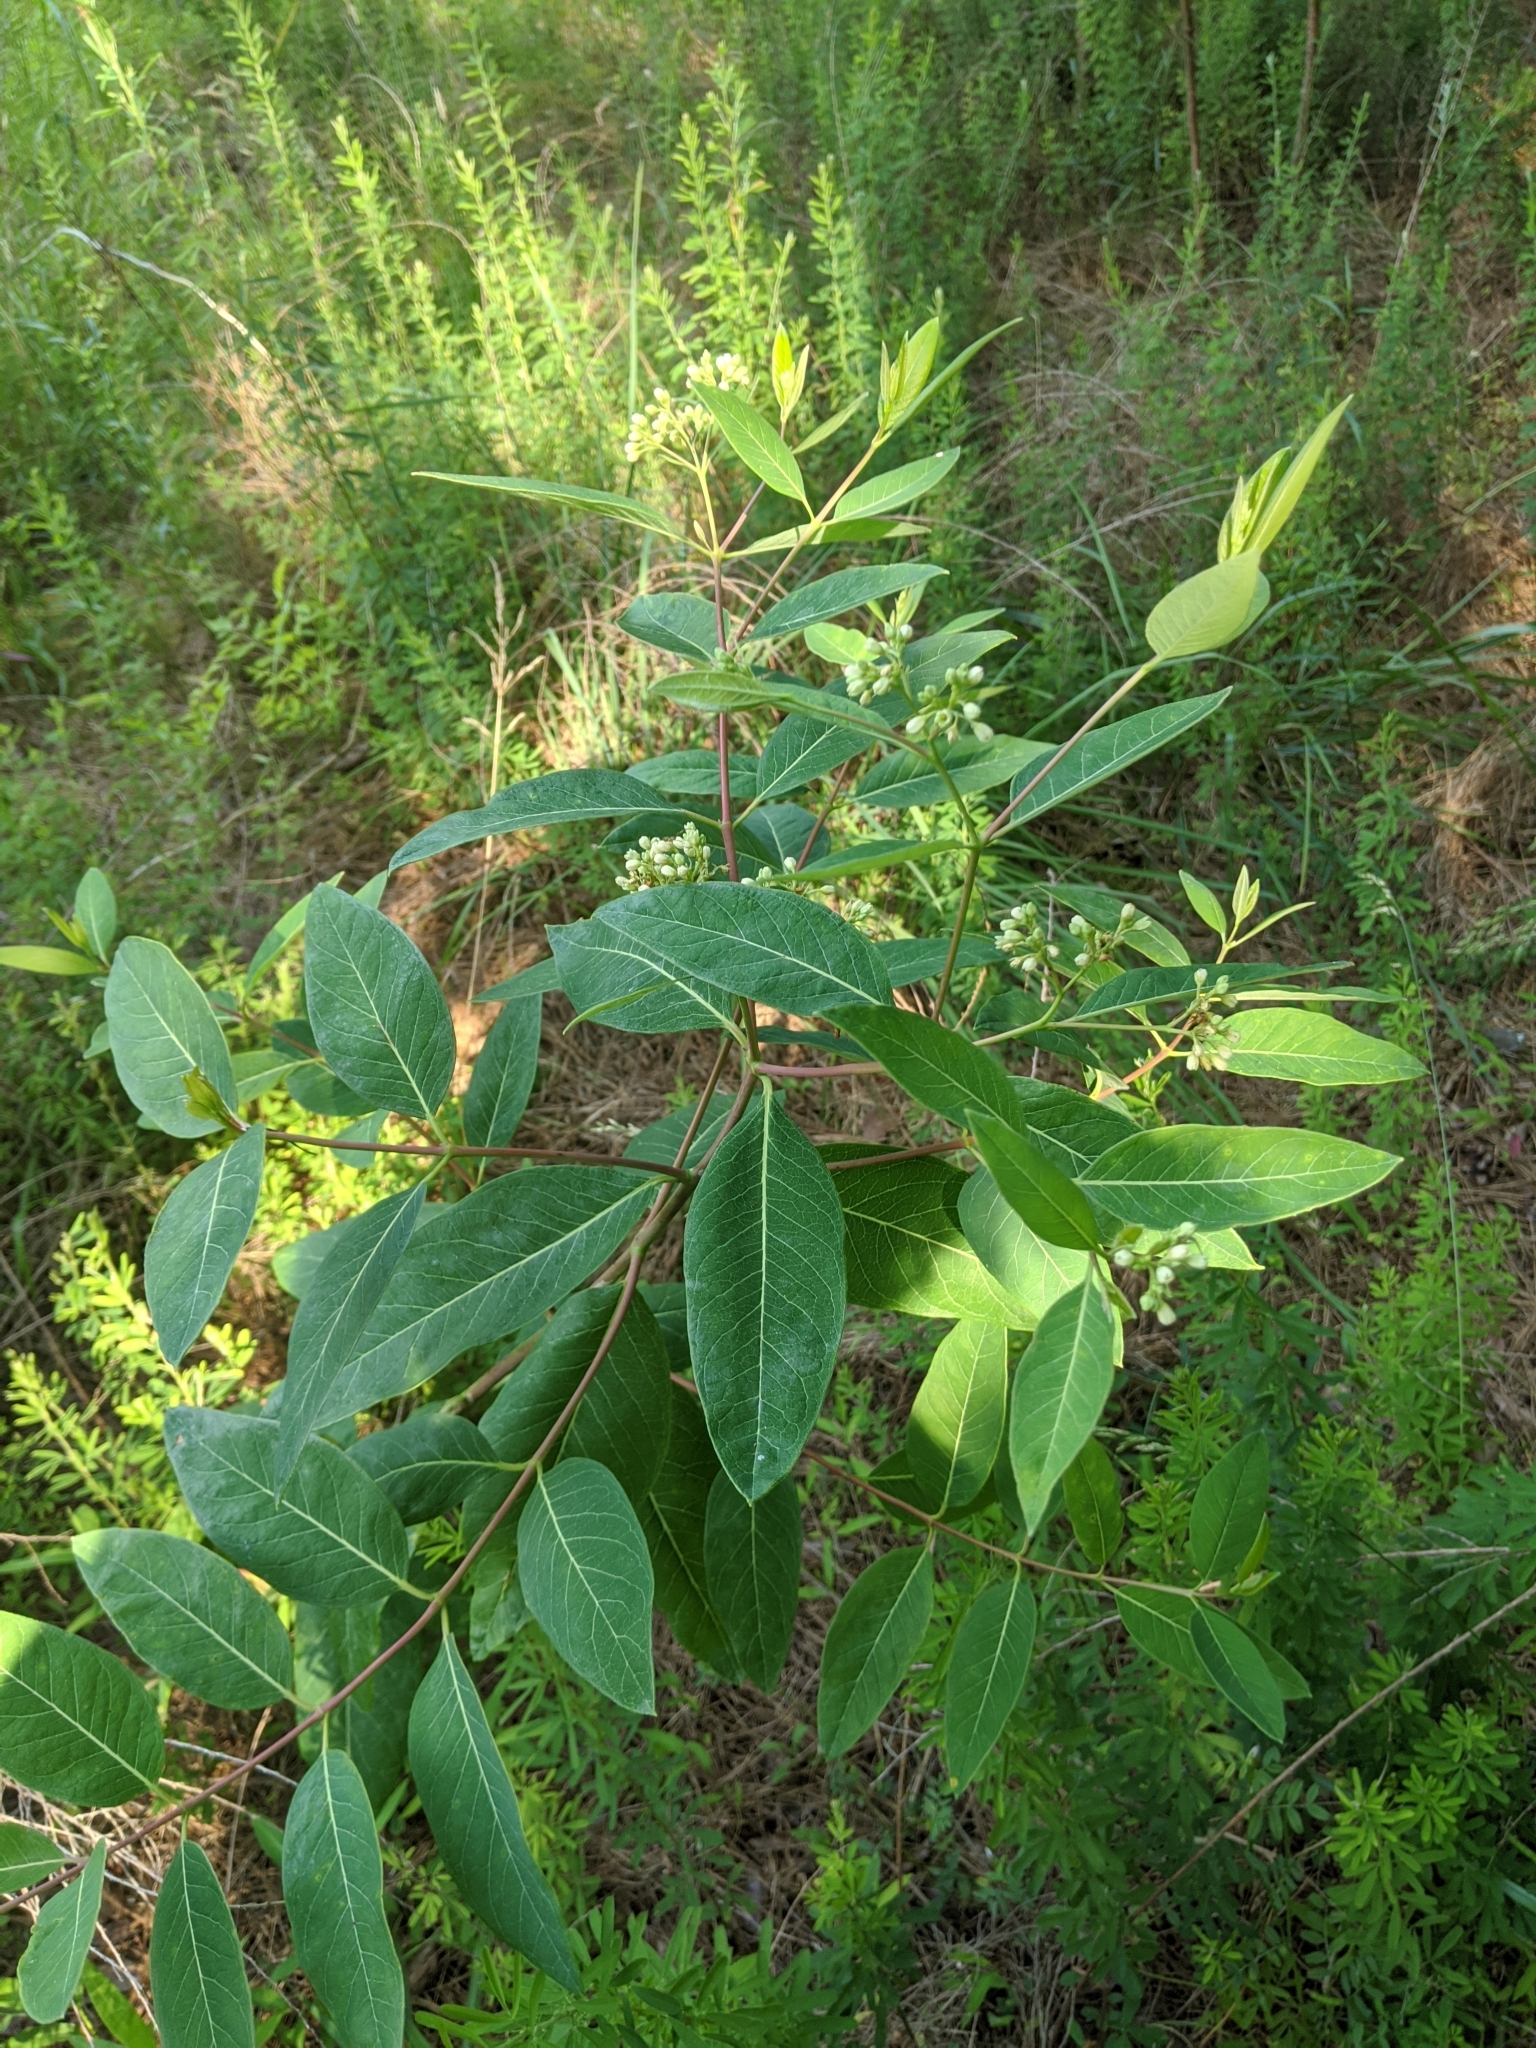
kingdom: Plantae
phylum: Tracheophyta
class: Magnoliopsida
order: Gentianales
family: Apocynaceae
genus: Apocynum
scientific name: Apocynum cannabinum
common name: Hemp dogbane
